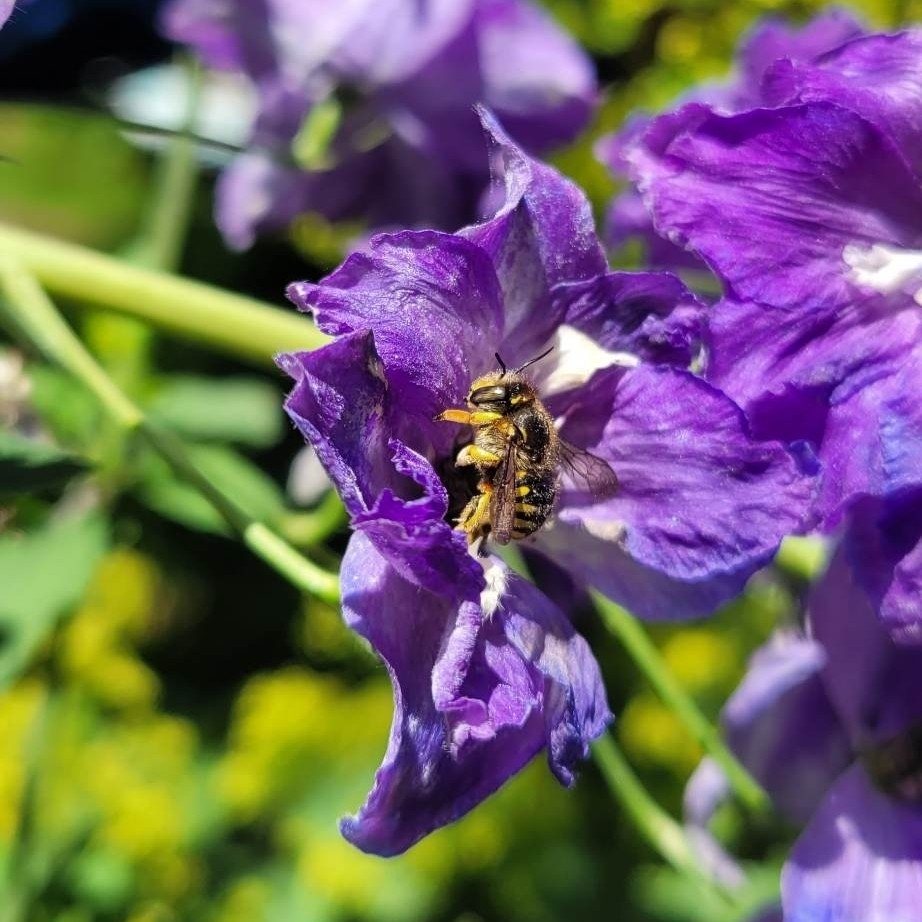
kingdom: Animalia
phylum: Arthropoda
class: Insecta
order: Hymenoptera
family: Megachilidae
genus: Anthidium
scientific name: Anthidium manicatum
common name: Wool carder bee
